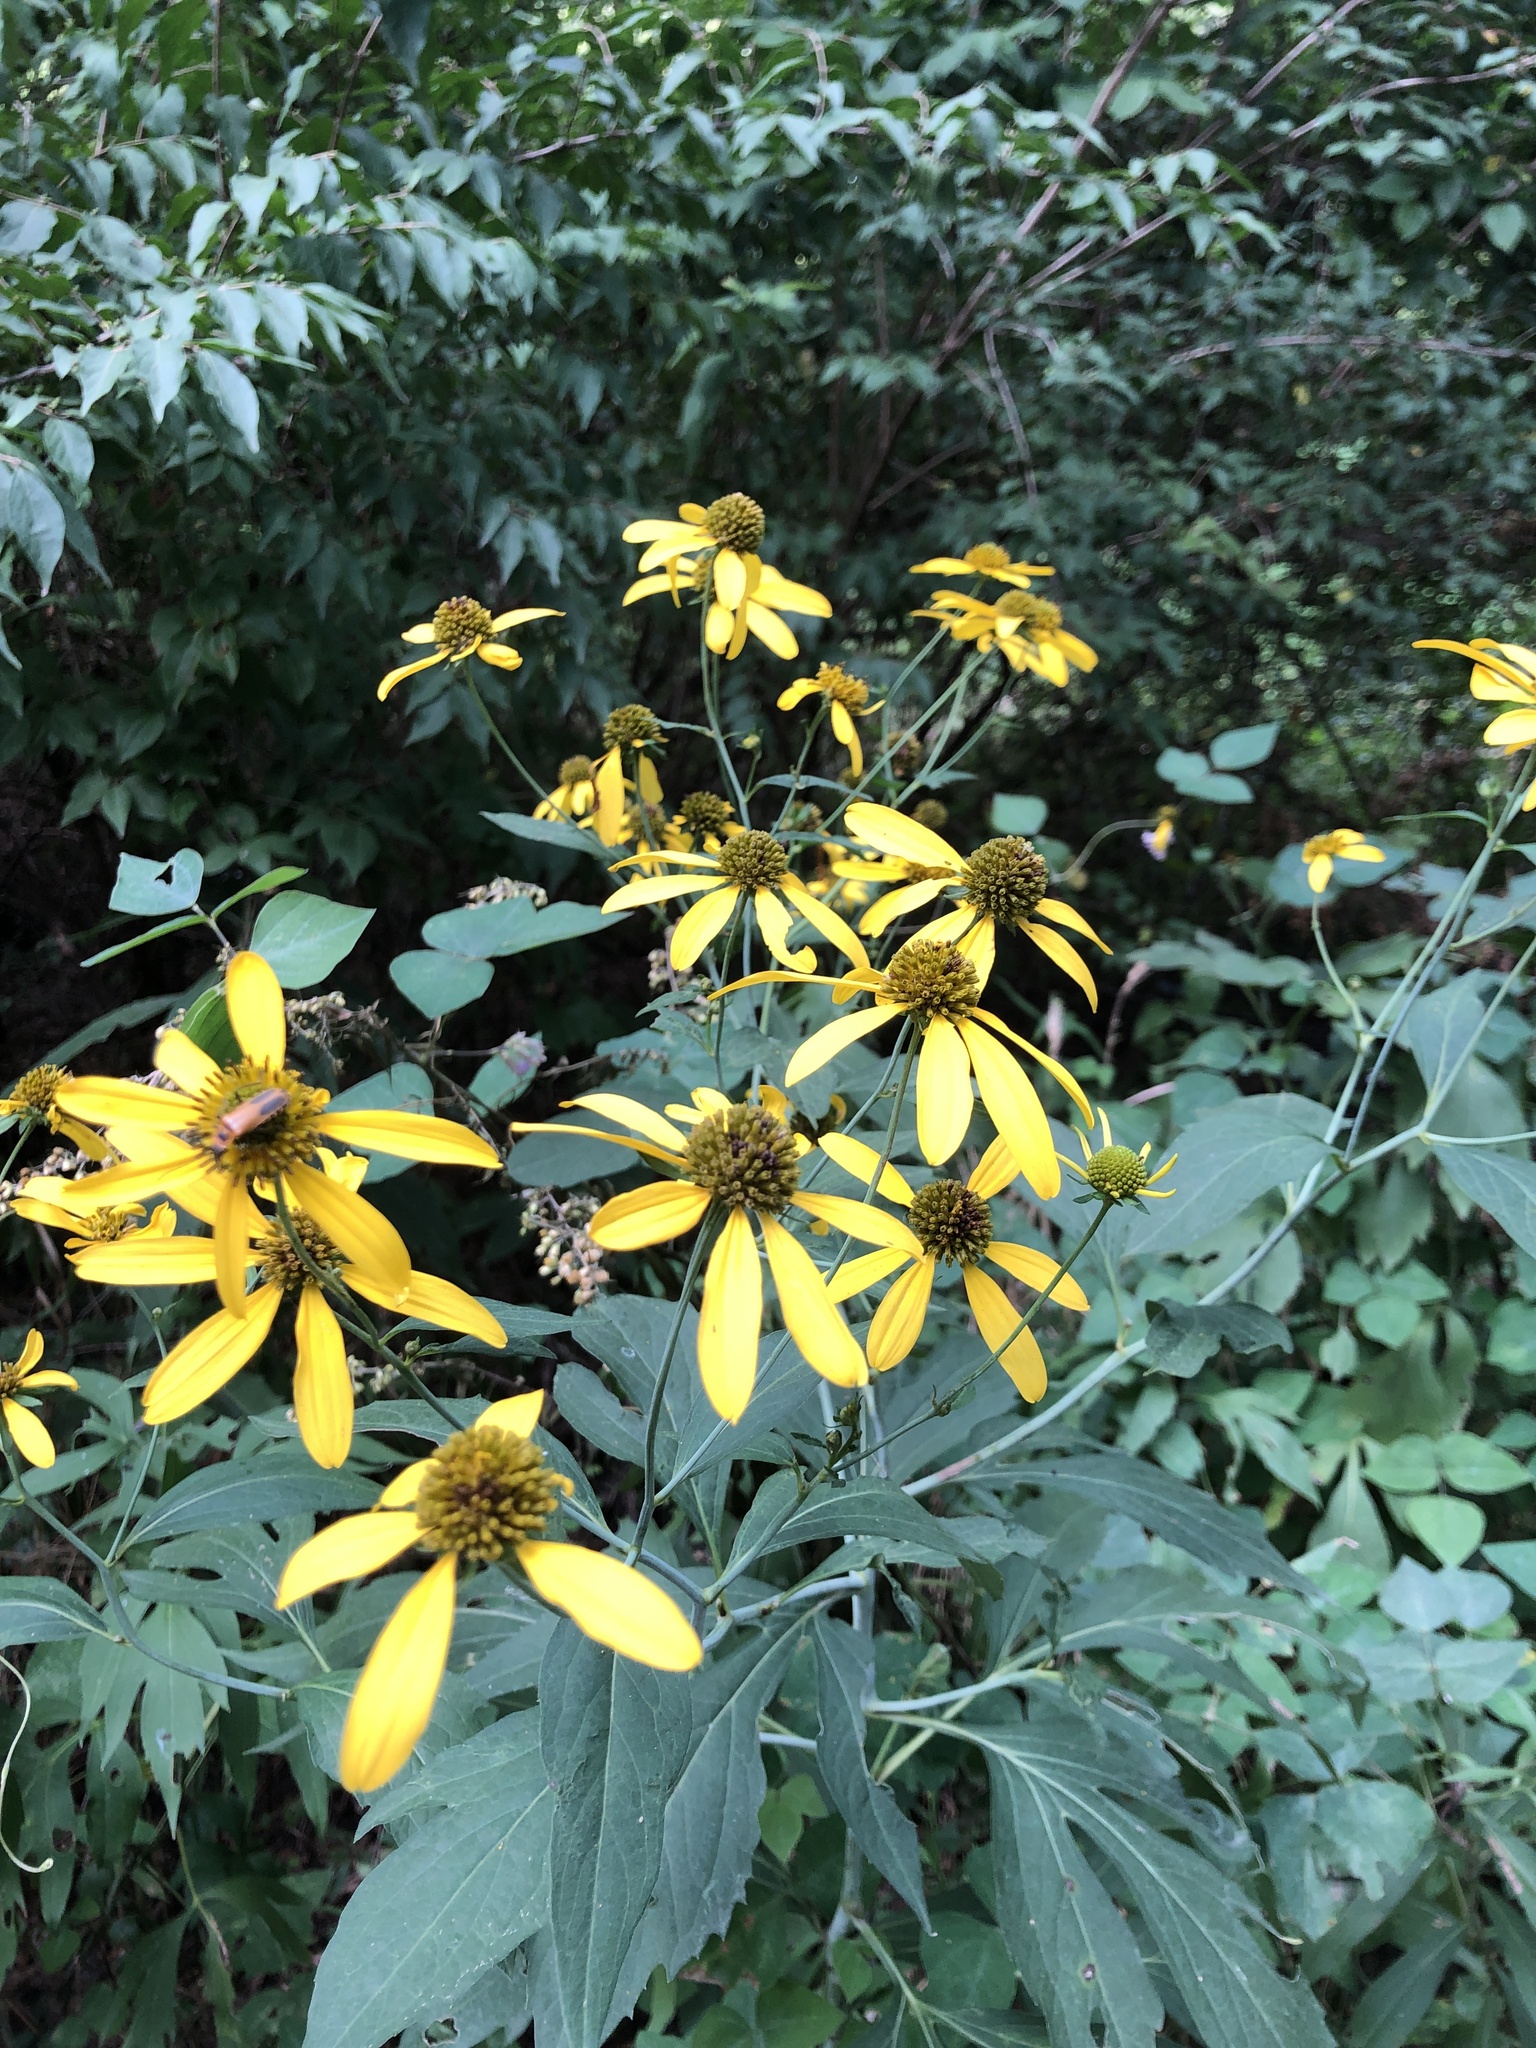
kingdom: Plantae
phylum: Tracheophyta
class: Magnoliopsida
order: Asterales
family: Asteraceae
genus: Rudbeckia
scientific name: Rudbeckia laciniata
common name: Coneflower
